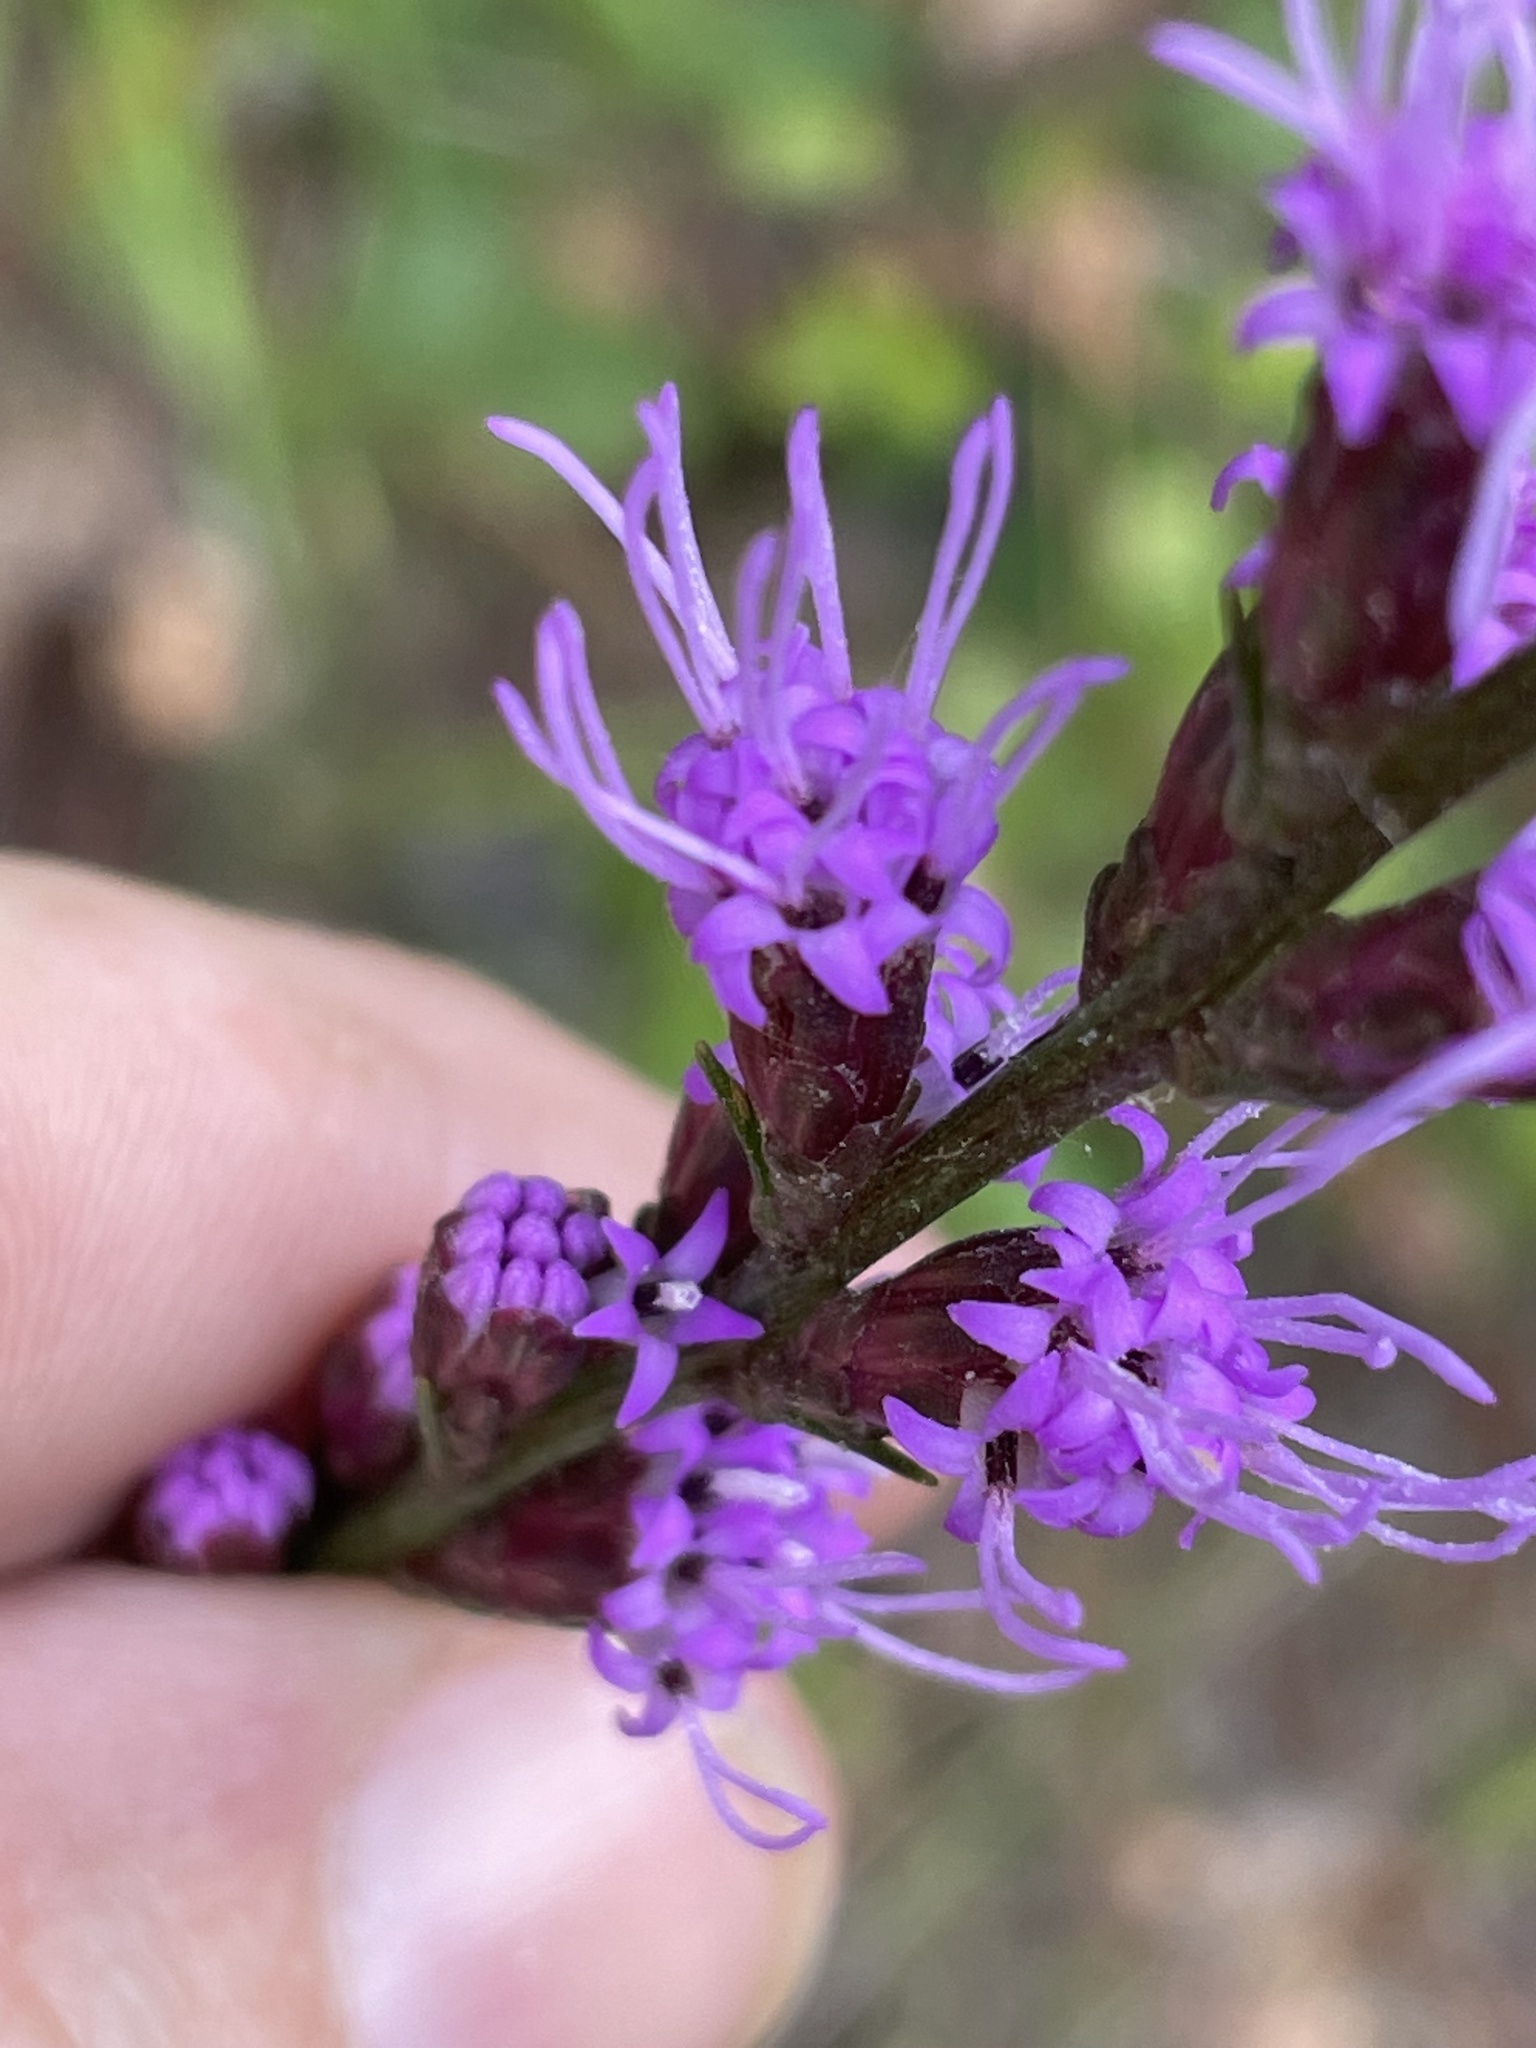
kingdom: Plantae
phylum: Tracheophyta
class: Magnoliopsida
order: Asterales
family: Asteraceae
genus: Liatris
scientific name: Liatris pilosa
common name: Grass-leaf gayfeather
